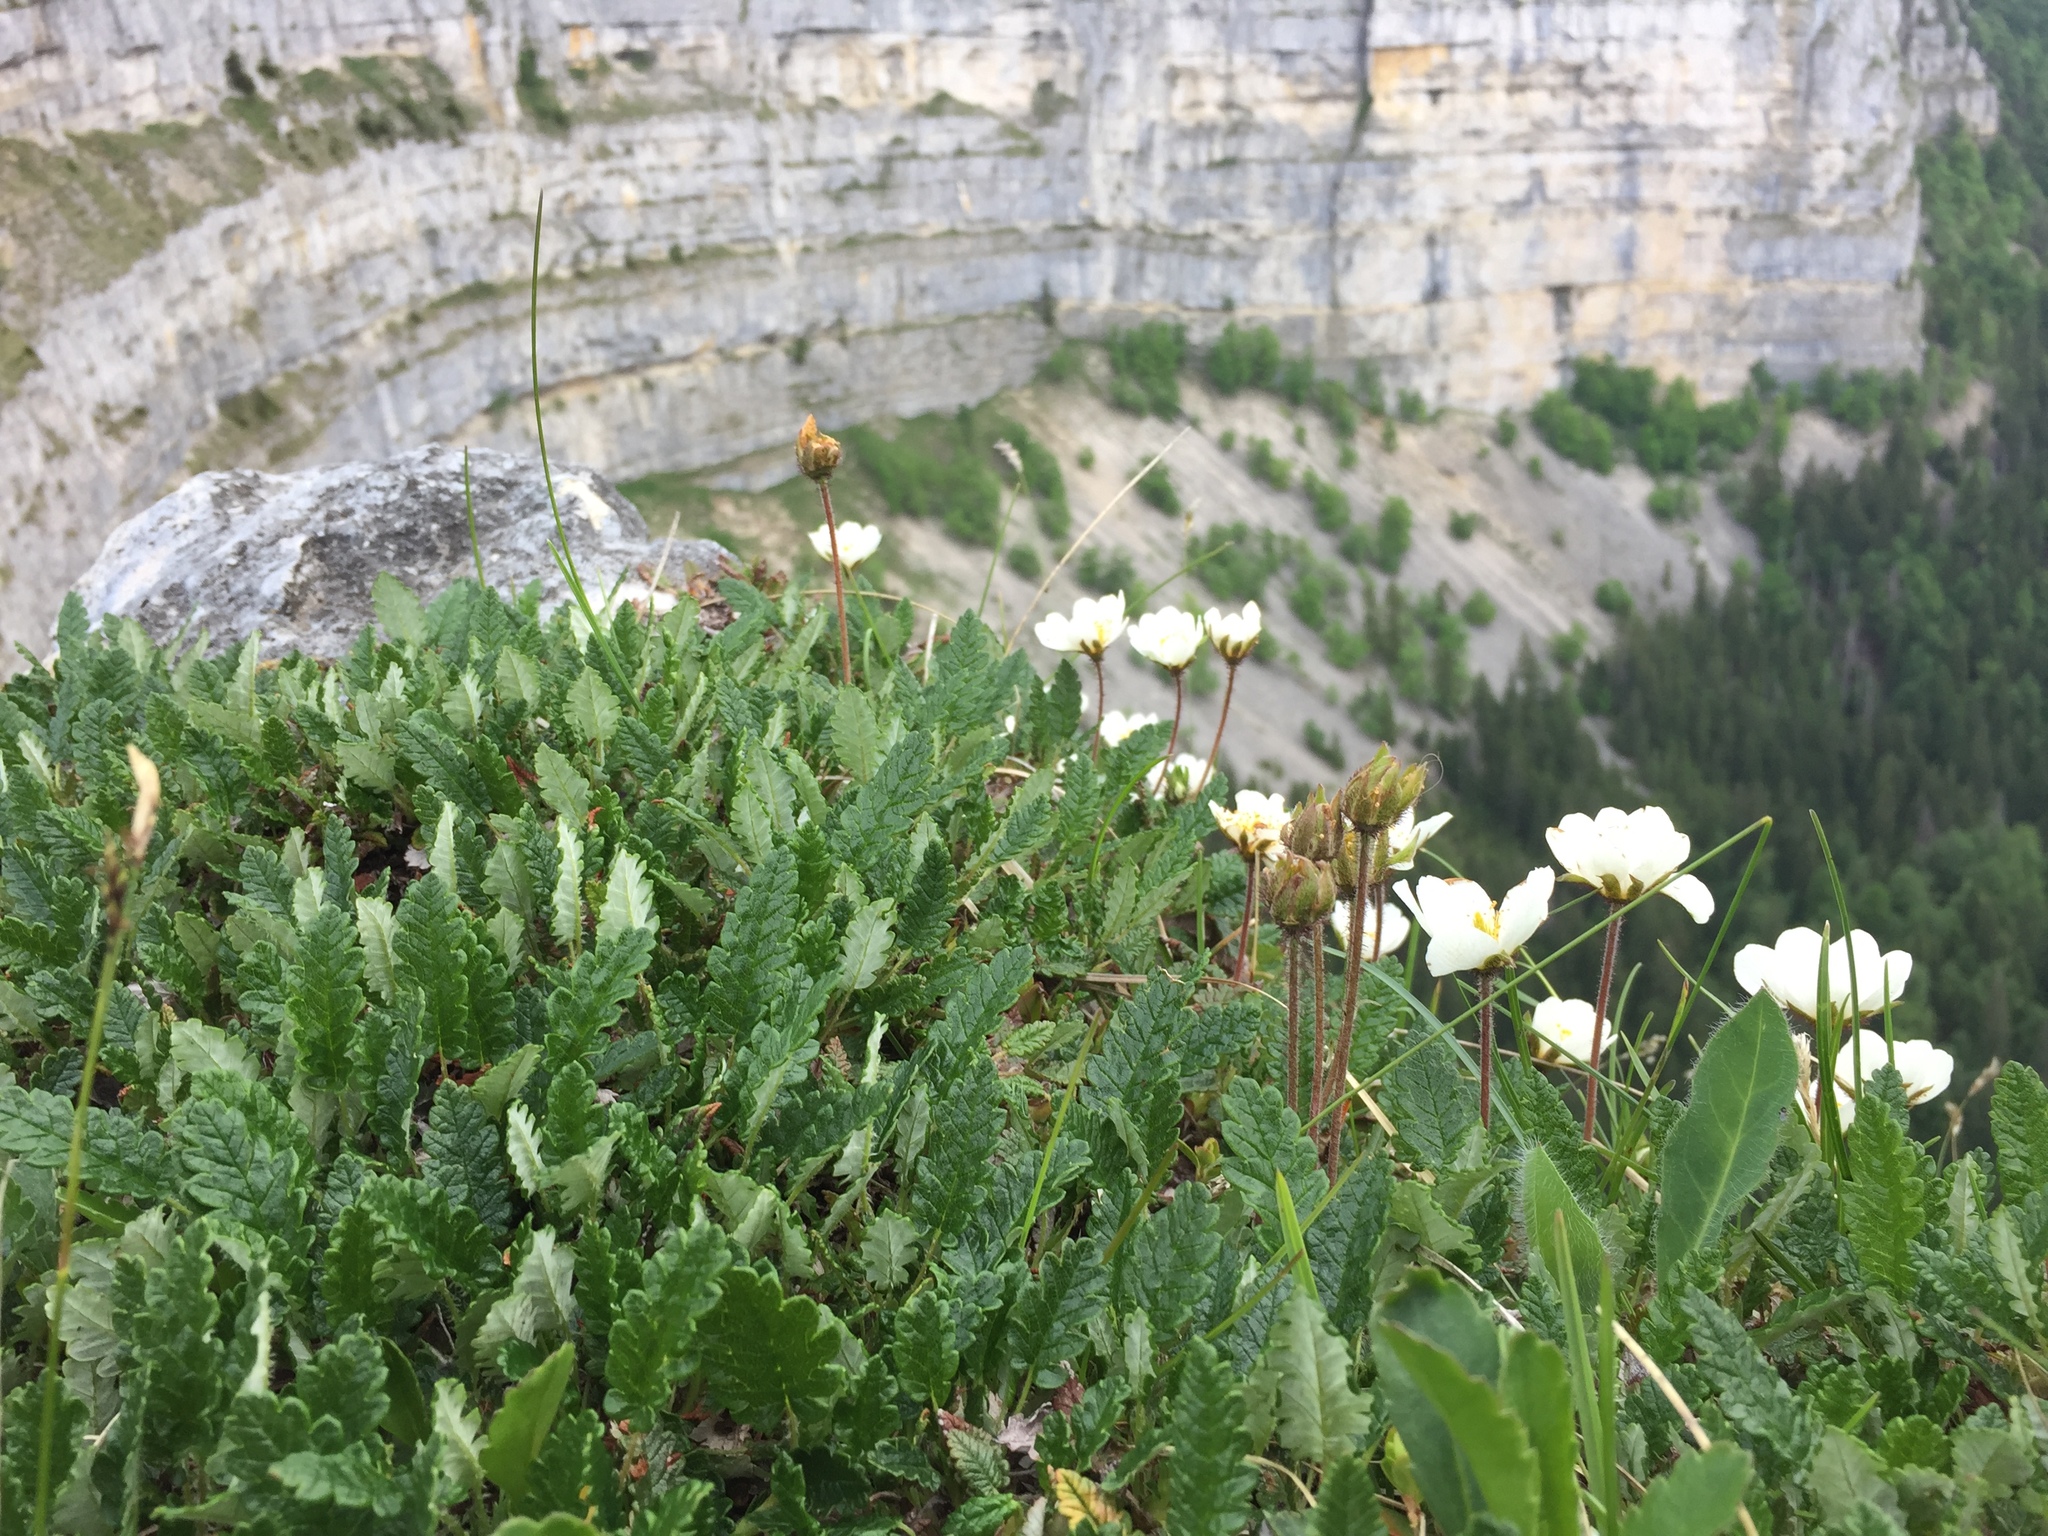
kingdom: Plantae
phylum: Tracheophyta
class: Magnoliopsida
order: Rosales
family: Rosaceae
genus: Dryas
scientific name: Dryas octopetala
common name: Eight-petal mountain-avens
